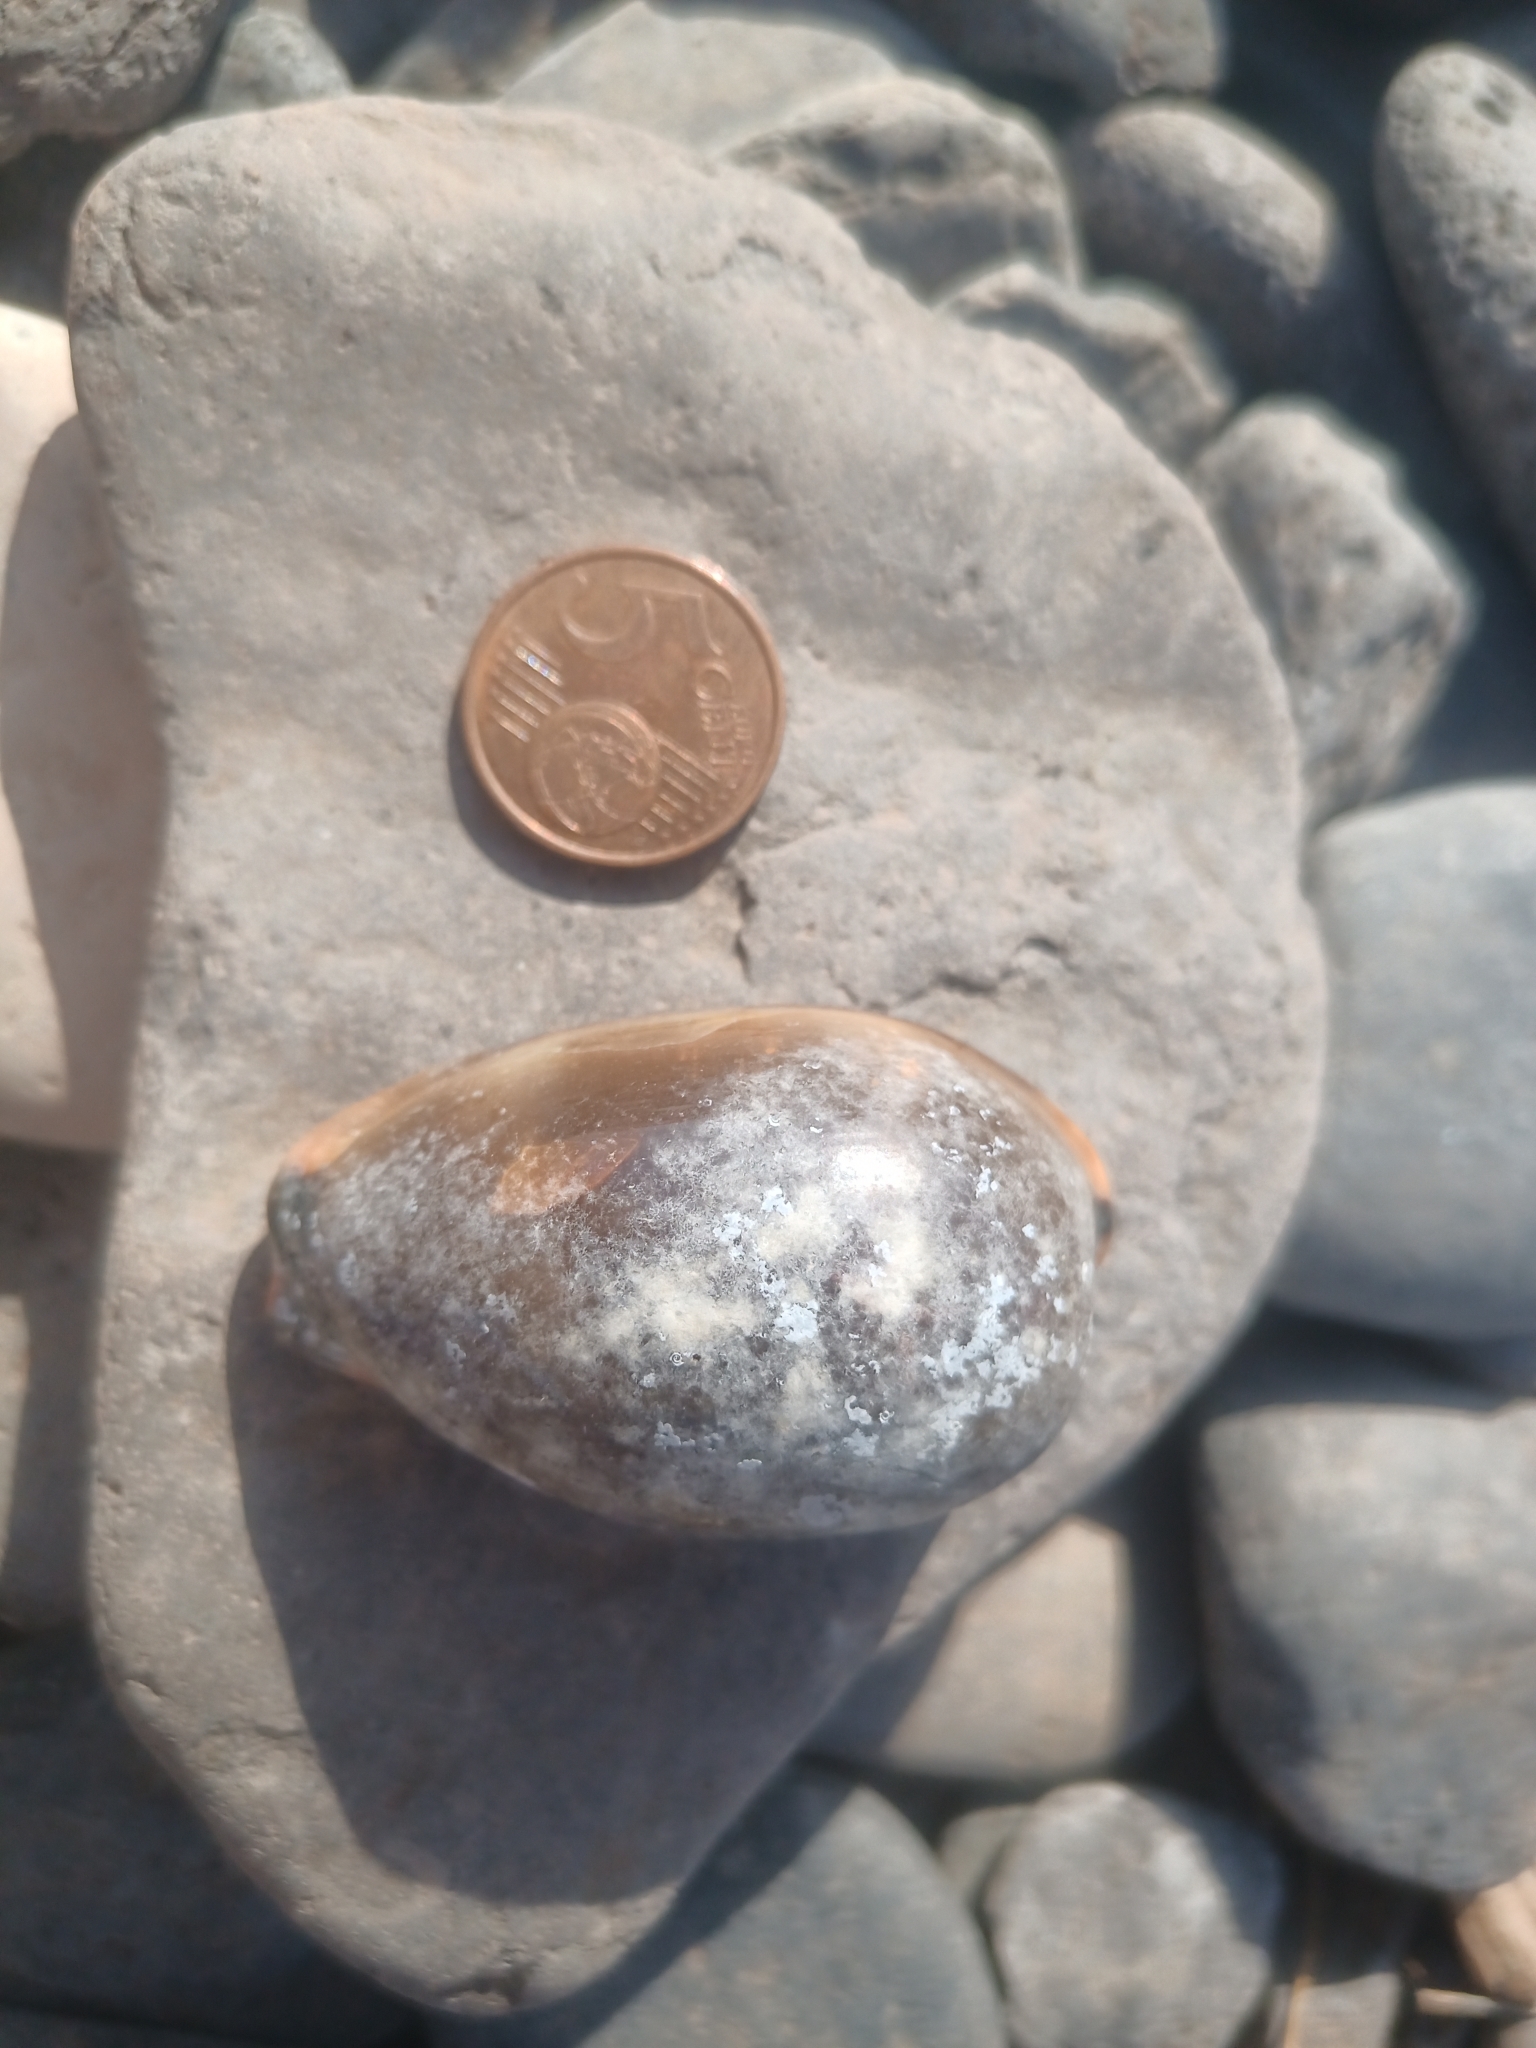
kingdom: Animalia
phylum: Mollusca
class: Gastropoda
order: Littorinimorpha
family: Cypraeidae
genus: Luria
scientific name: Luria lurida
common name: Brown cowry
